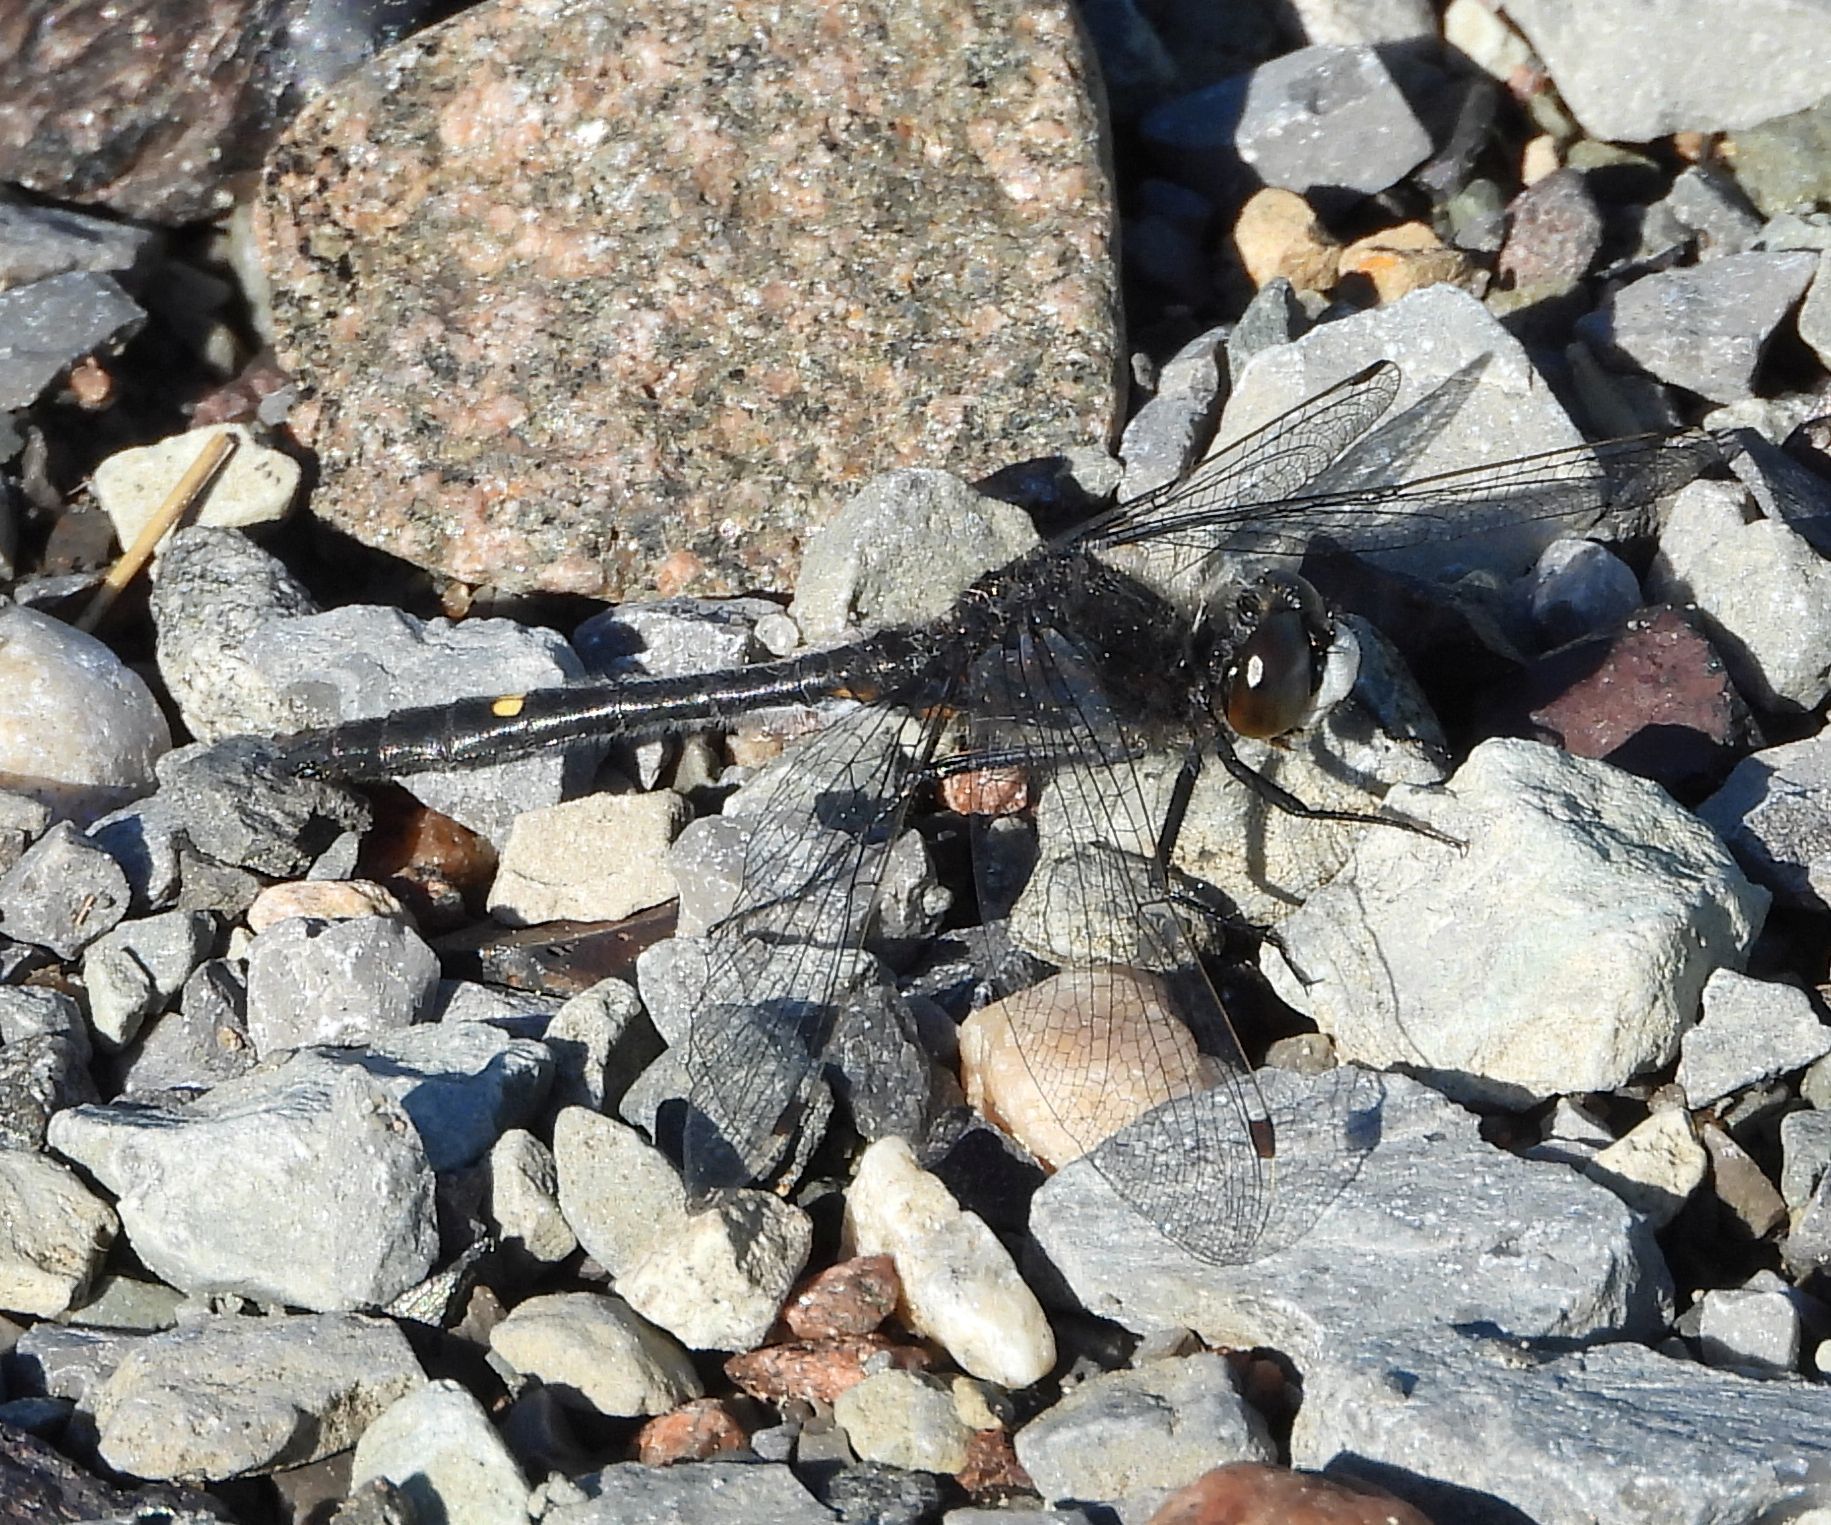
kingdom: Animalia
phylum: Arthropoda
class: Insecta
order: Odonata
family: Libellulidae
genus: Leucorrhinia
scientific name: Leucorrhinia intacta
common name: Dot-tailed whiteface
